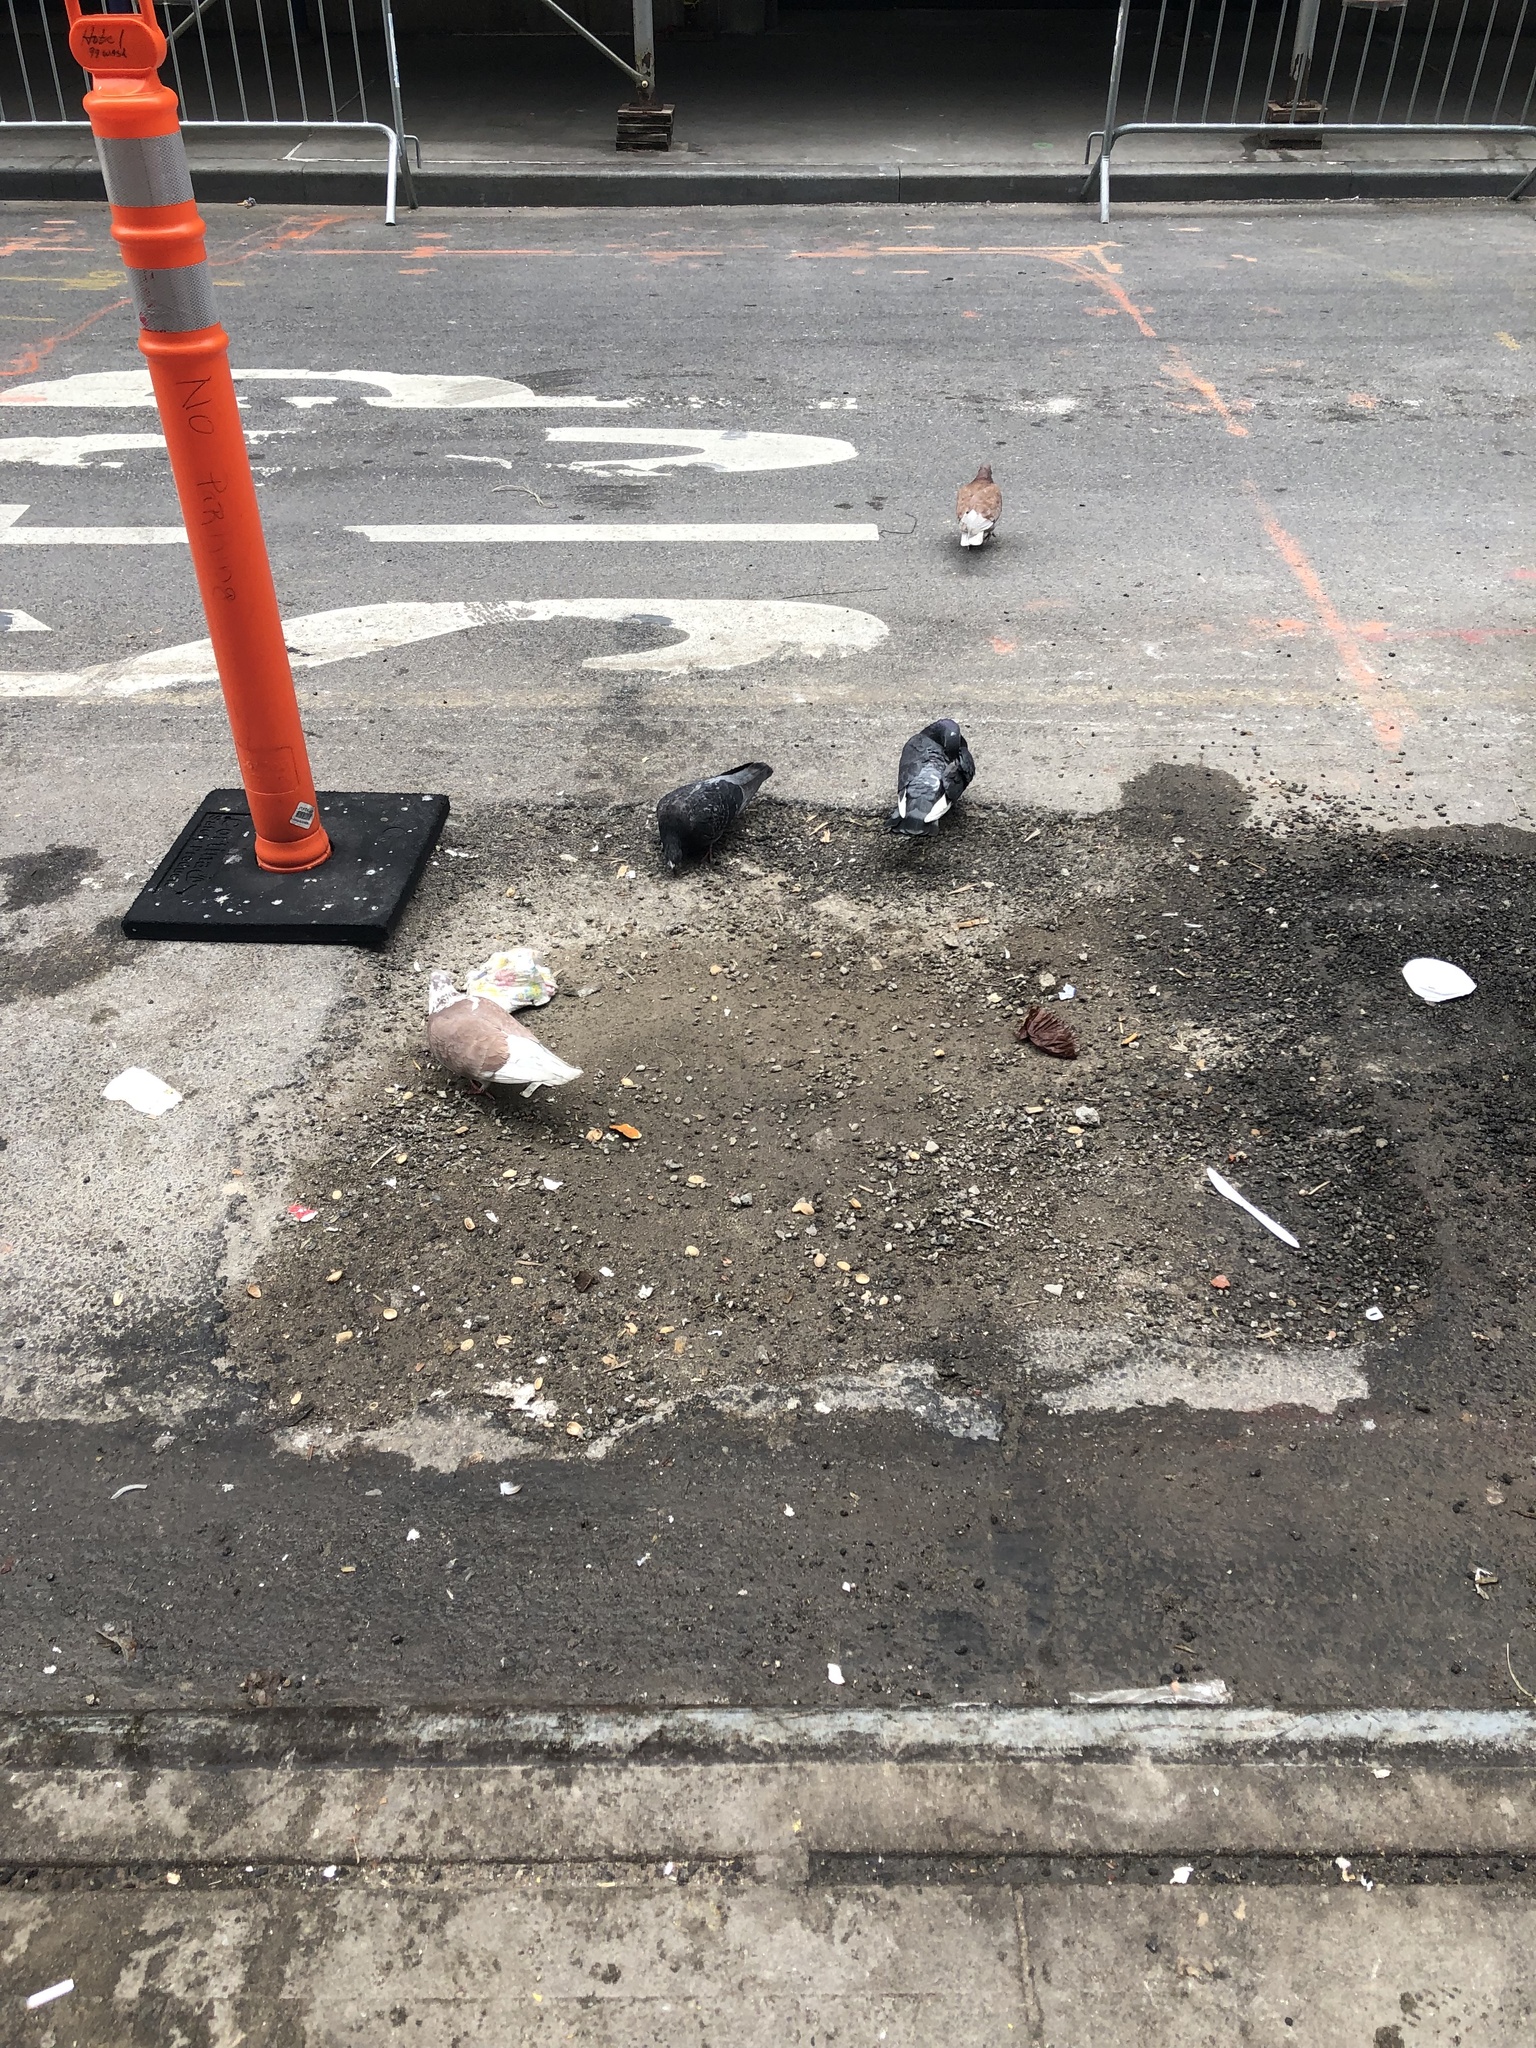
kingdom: Animalia
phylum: Chordata
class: Aves
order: Columbiformes
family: Columbidae
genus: Columba
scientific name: Columba livia
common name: Rock pigeon
